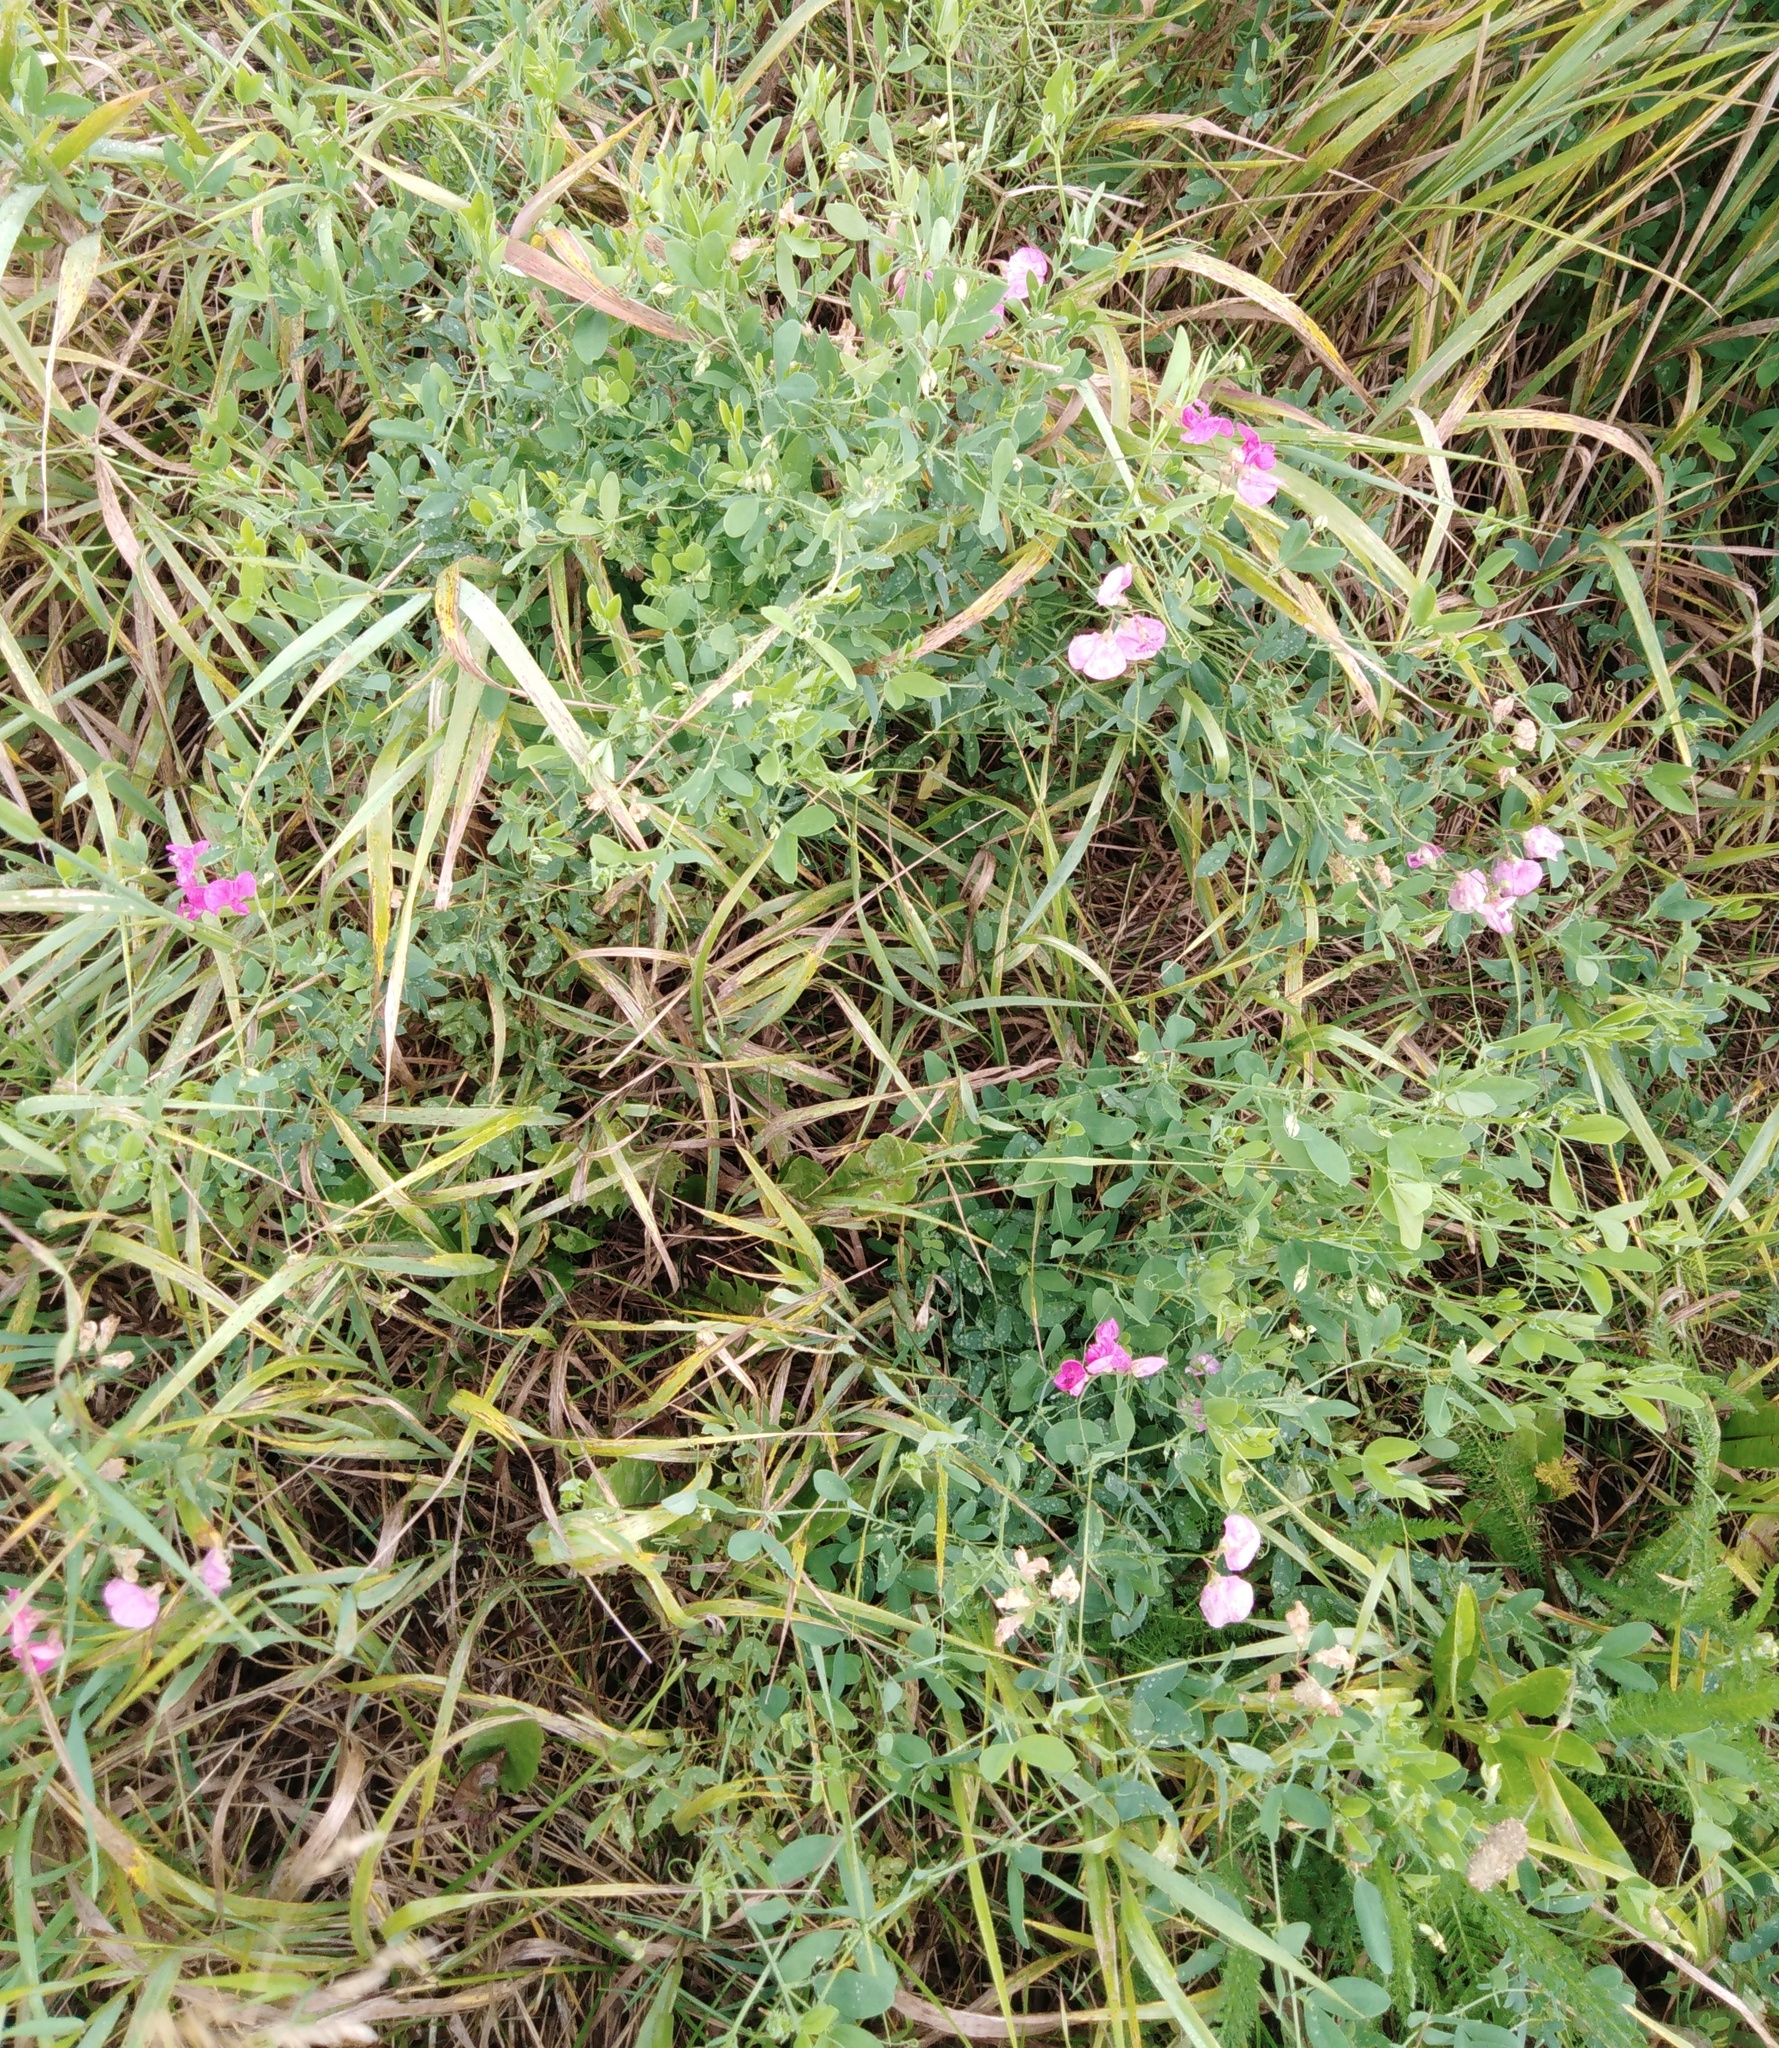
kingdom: Plantae
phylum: Tracheophyta
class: Magnoliopsida
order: Fabales
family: Fabaceae
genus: Lathyrus
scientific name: Lathyrus tuberosus
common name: Tuberous pea
